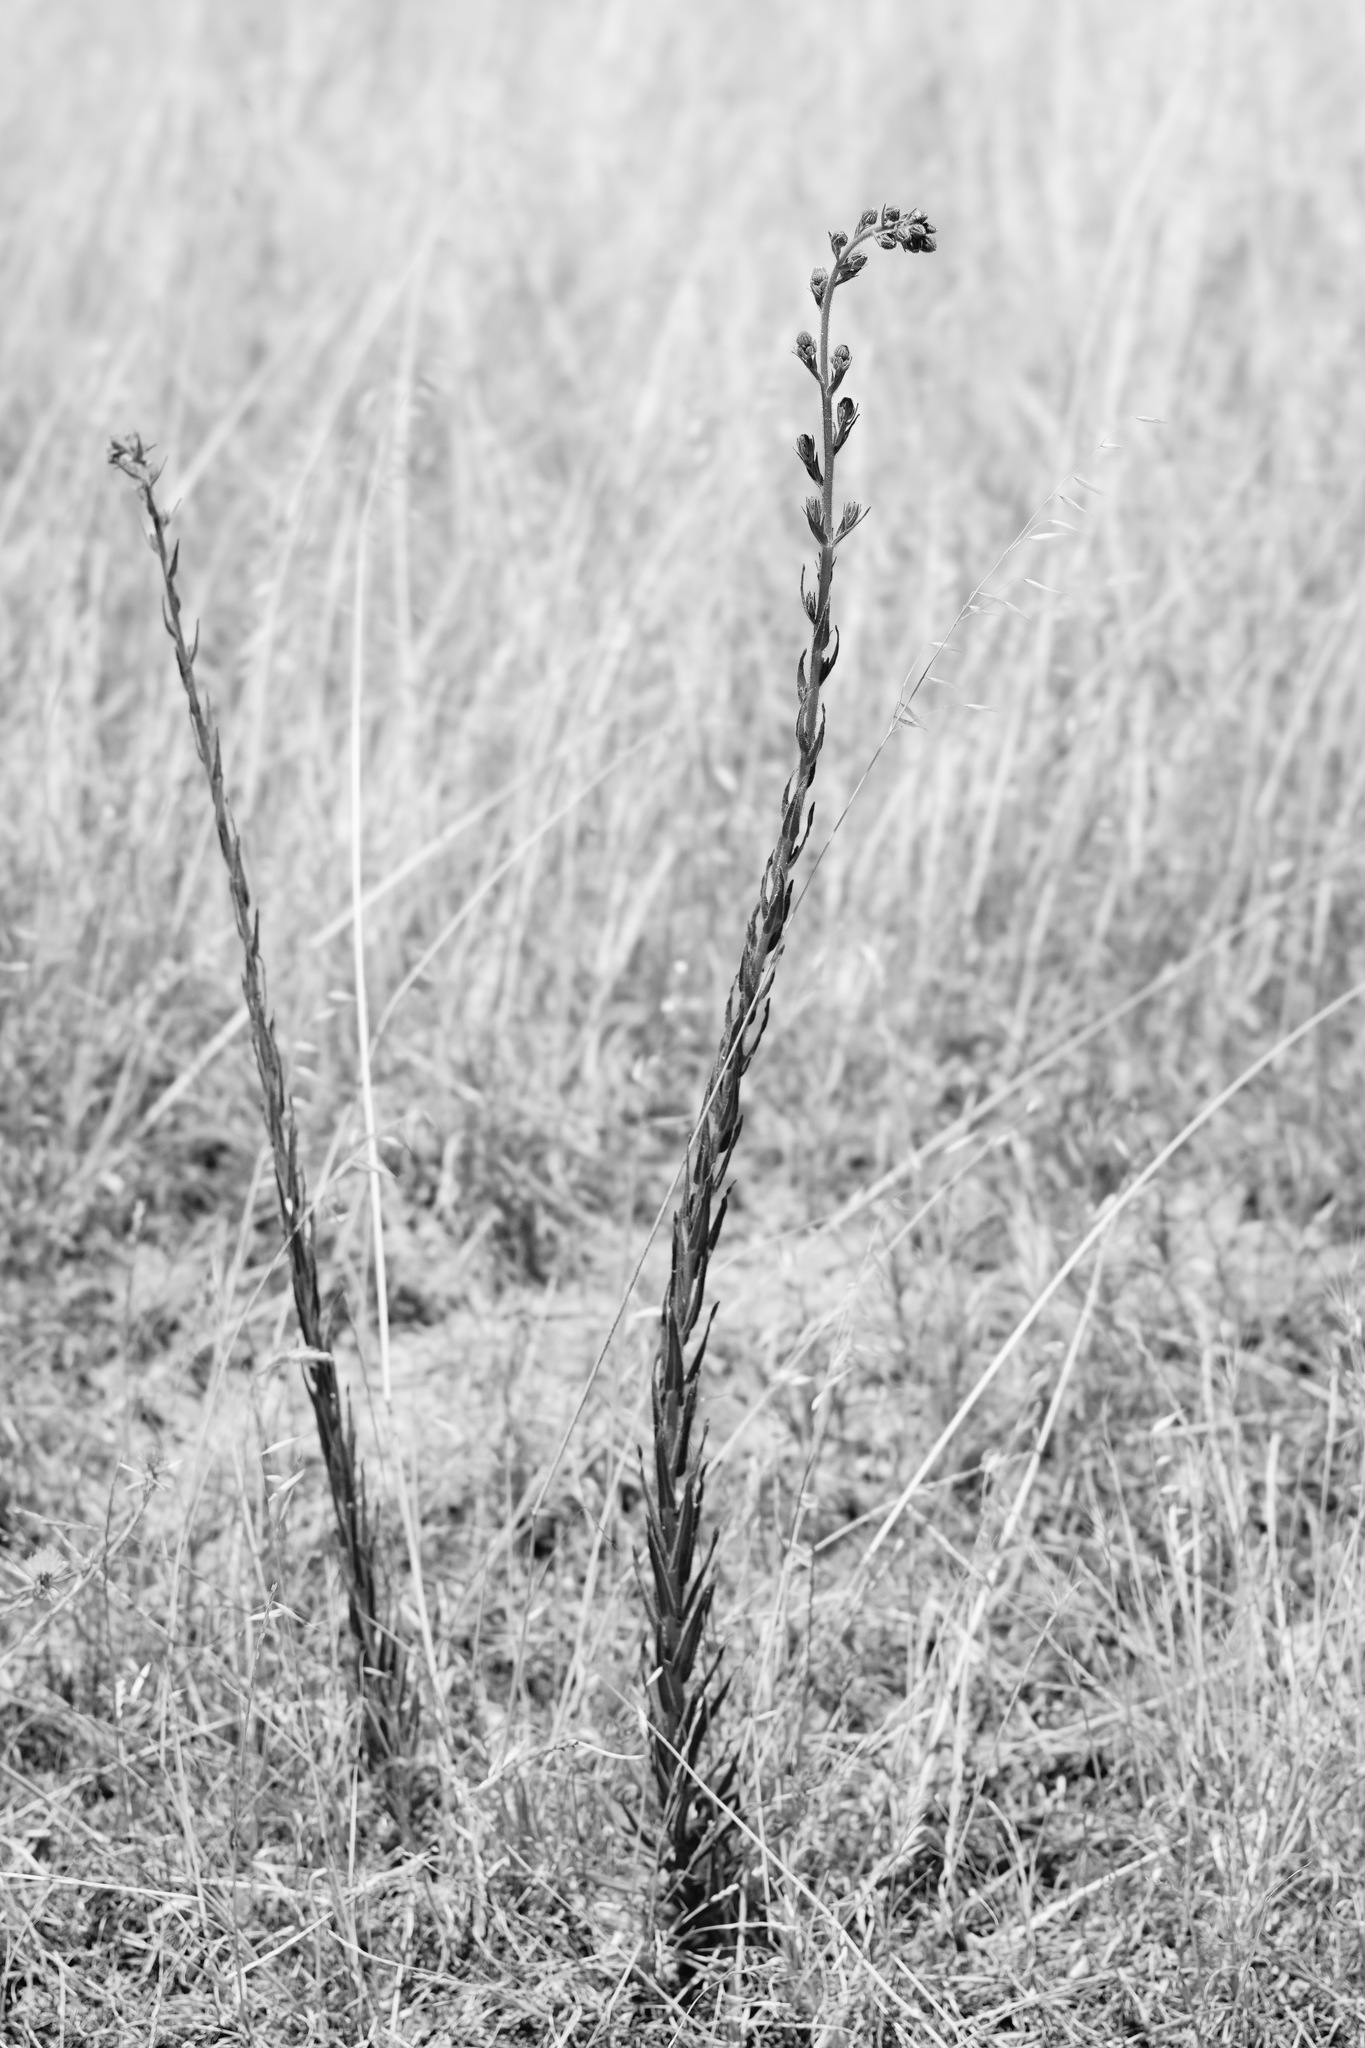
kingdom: Plantae
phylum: Tracheophyta
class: Magnoliopsida
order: Asterales
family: Asteraceae
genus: Madia
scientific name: Madia sativa
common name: Coast tarweed
